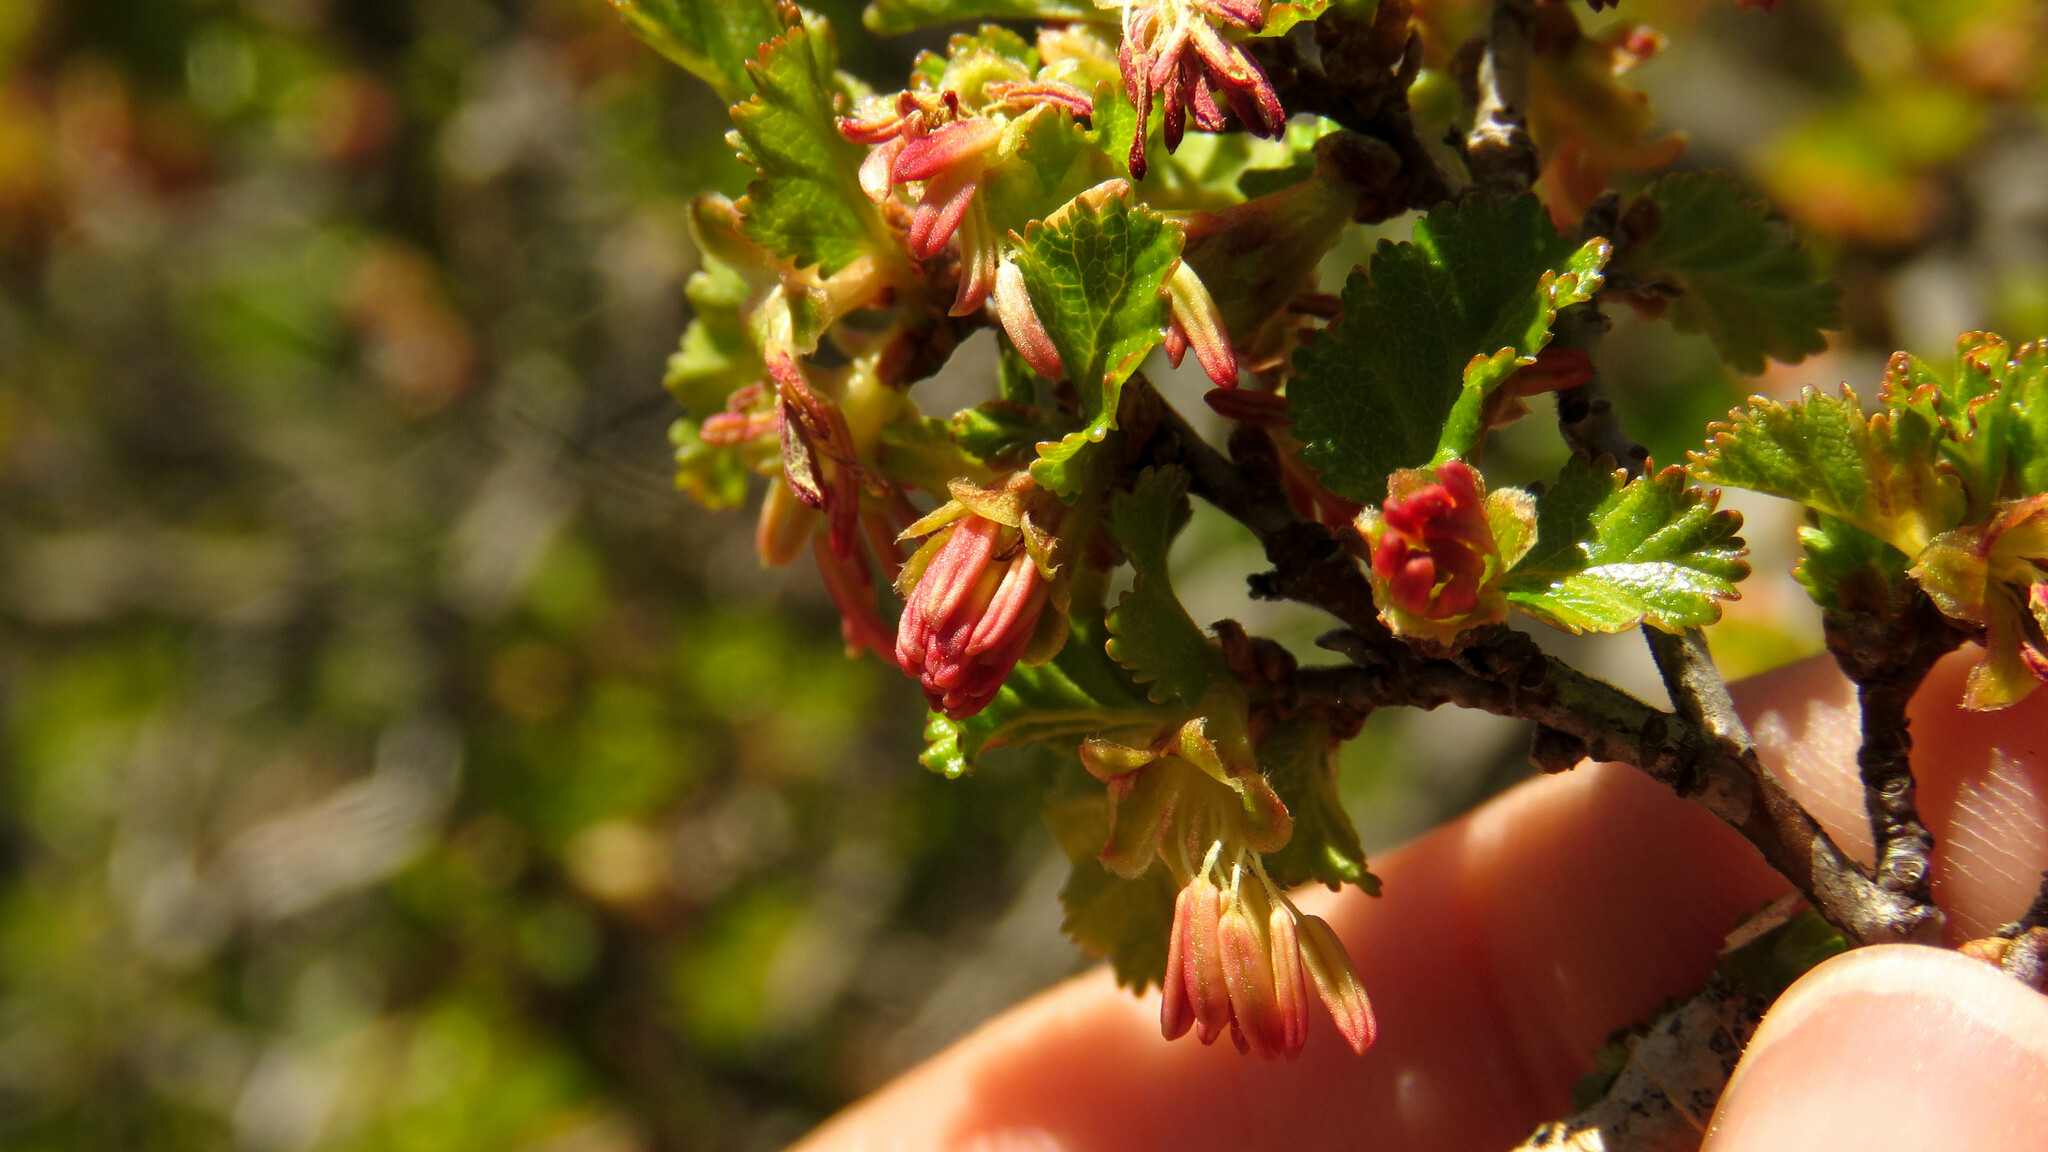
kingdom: Plantae
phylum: Tracheophyta
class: Magnoliopsida
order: Fagales
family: Nothofagaceae
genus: Nothofagus
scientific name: Nothofagus antarctica
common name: Antarctic beech
